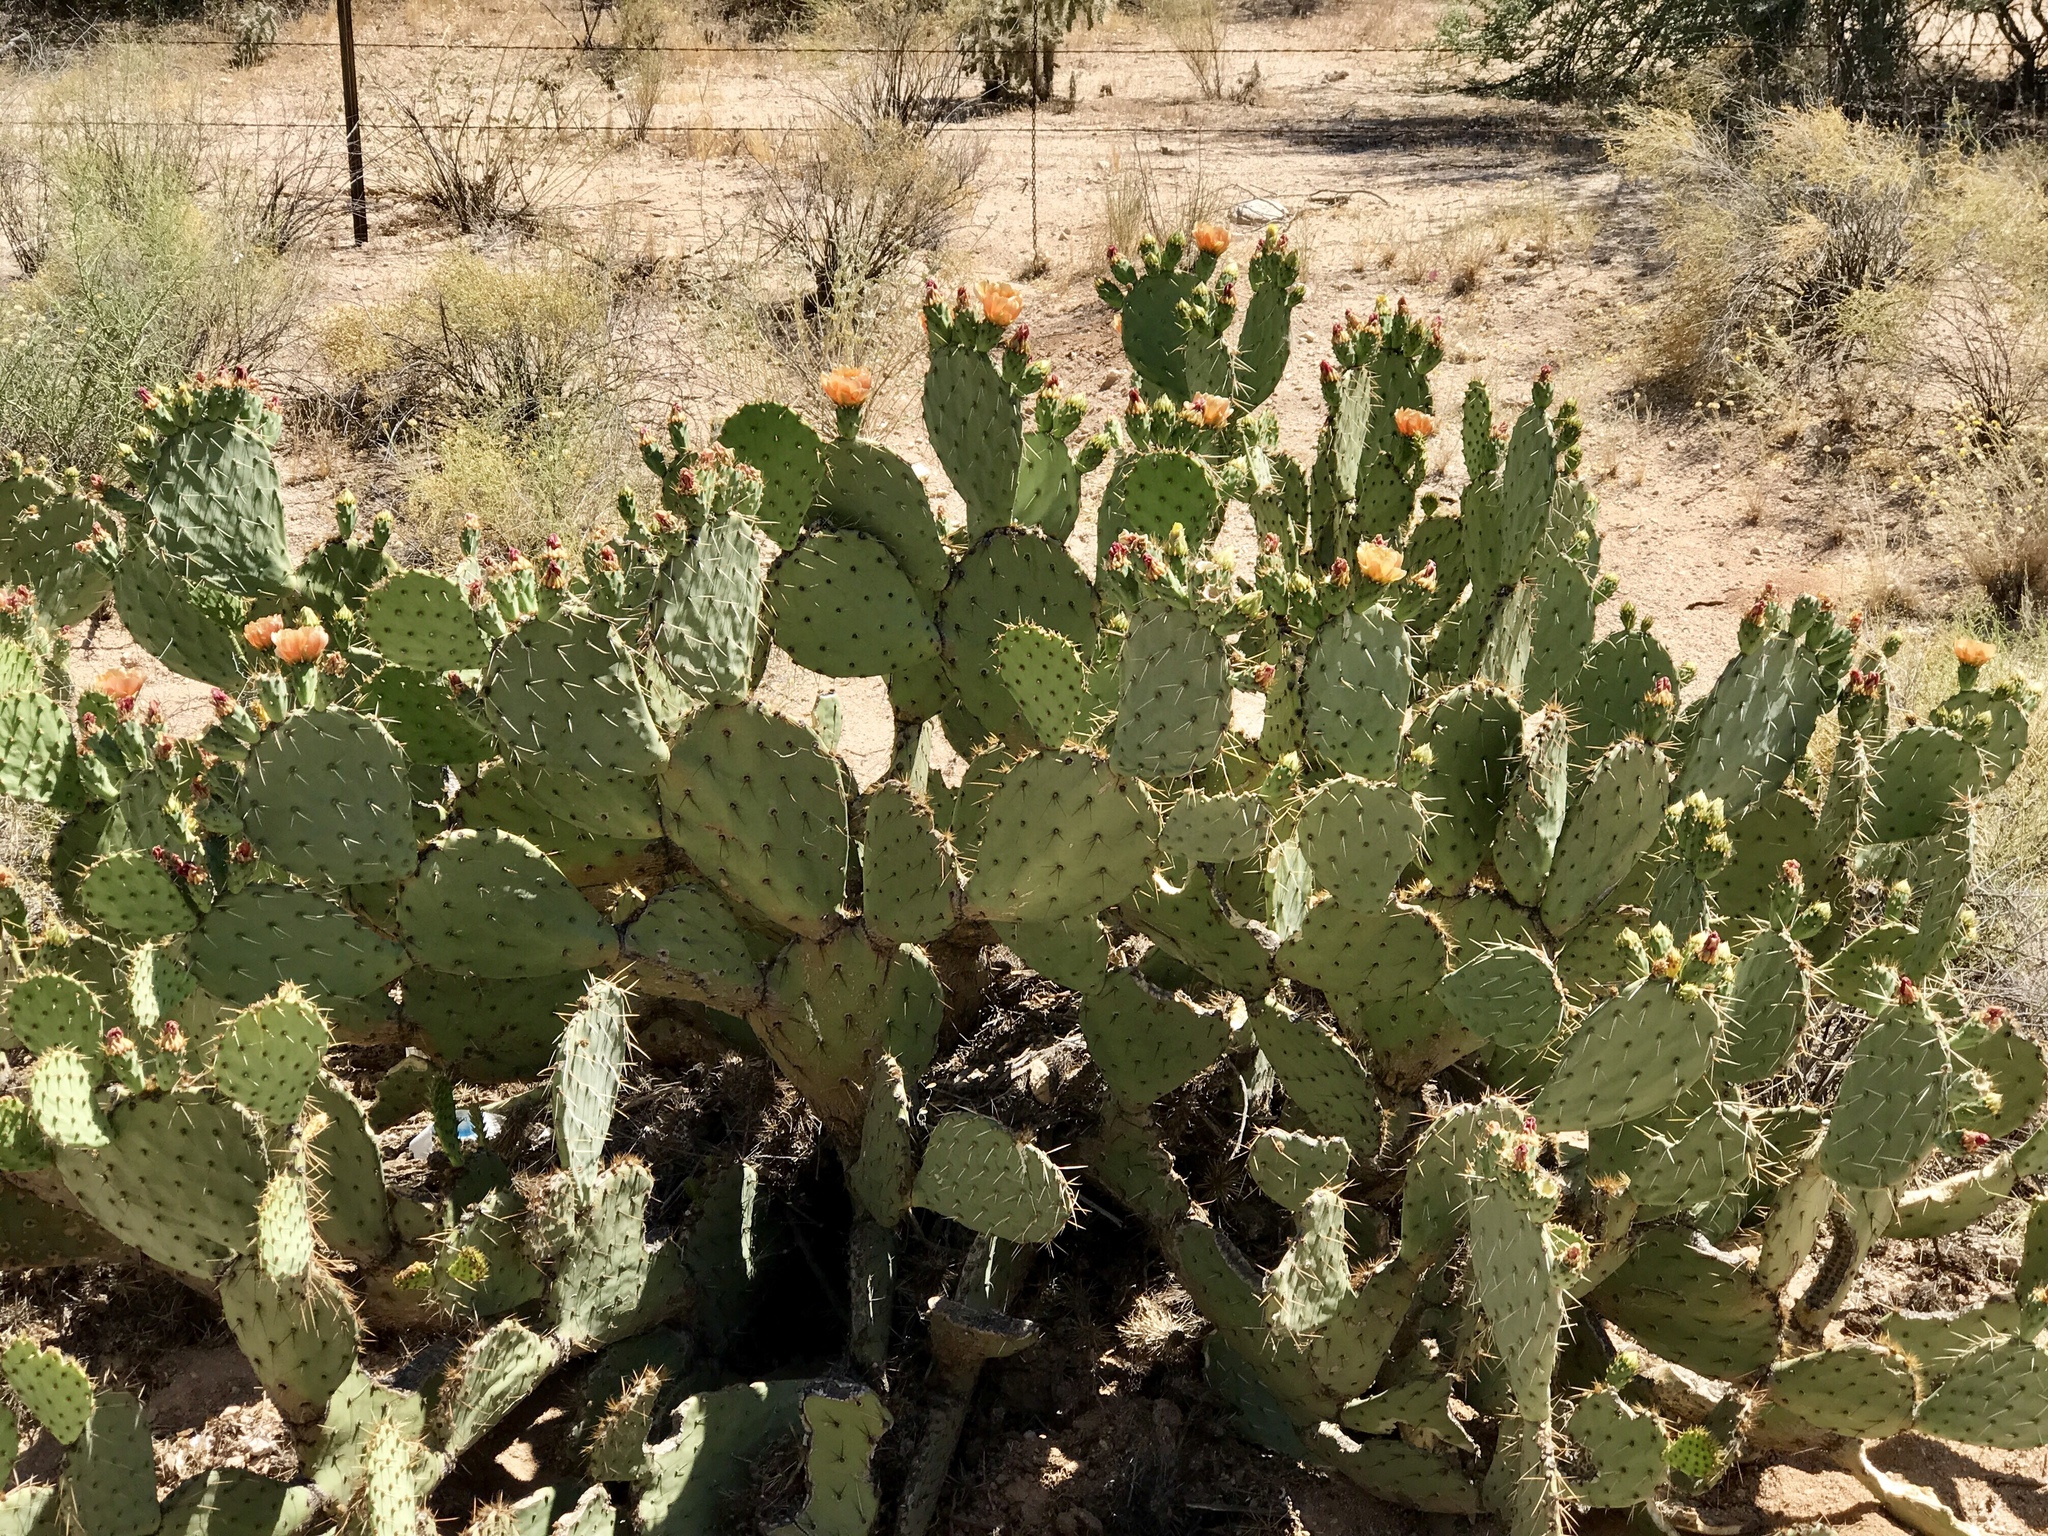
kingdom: Plantae
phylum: Tracheophyta
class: Magnoliopsida
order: Caryophyllales
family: Cactaceae
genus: Opuntia
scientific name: Opuntia engelmannii
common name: Cactus-apple
